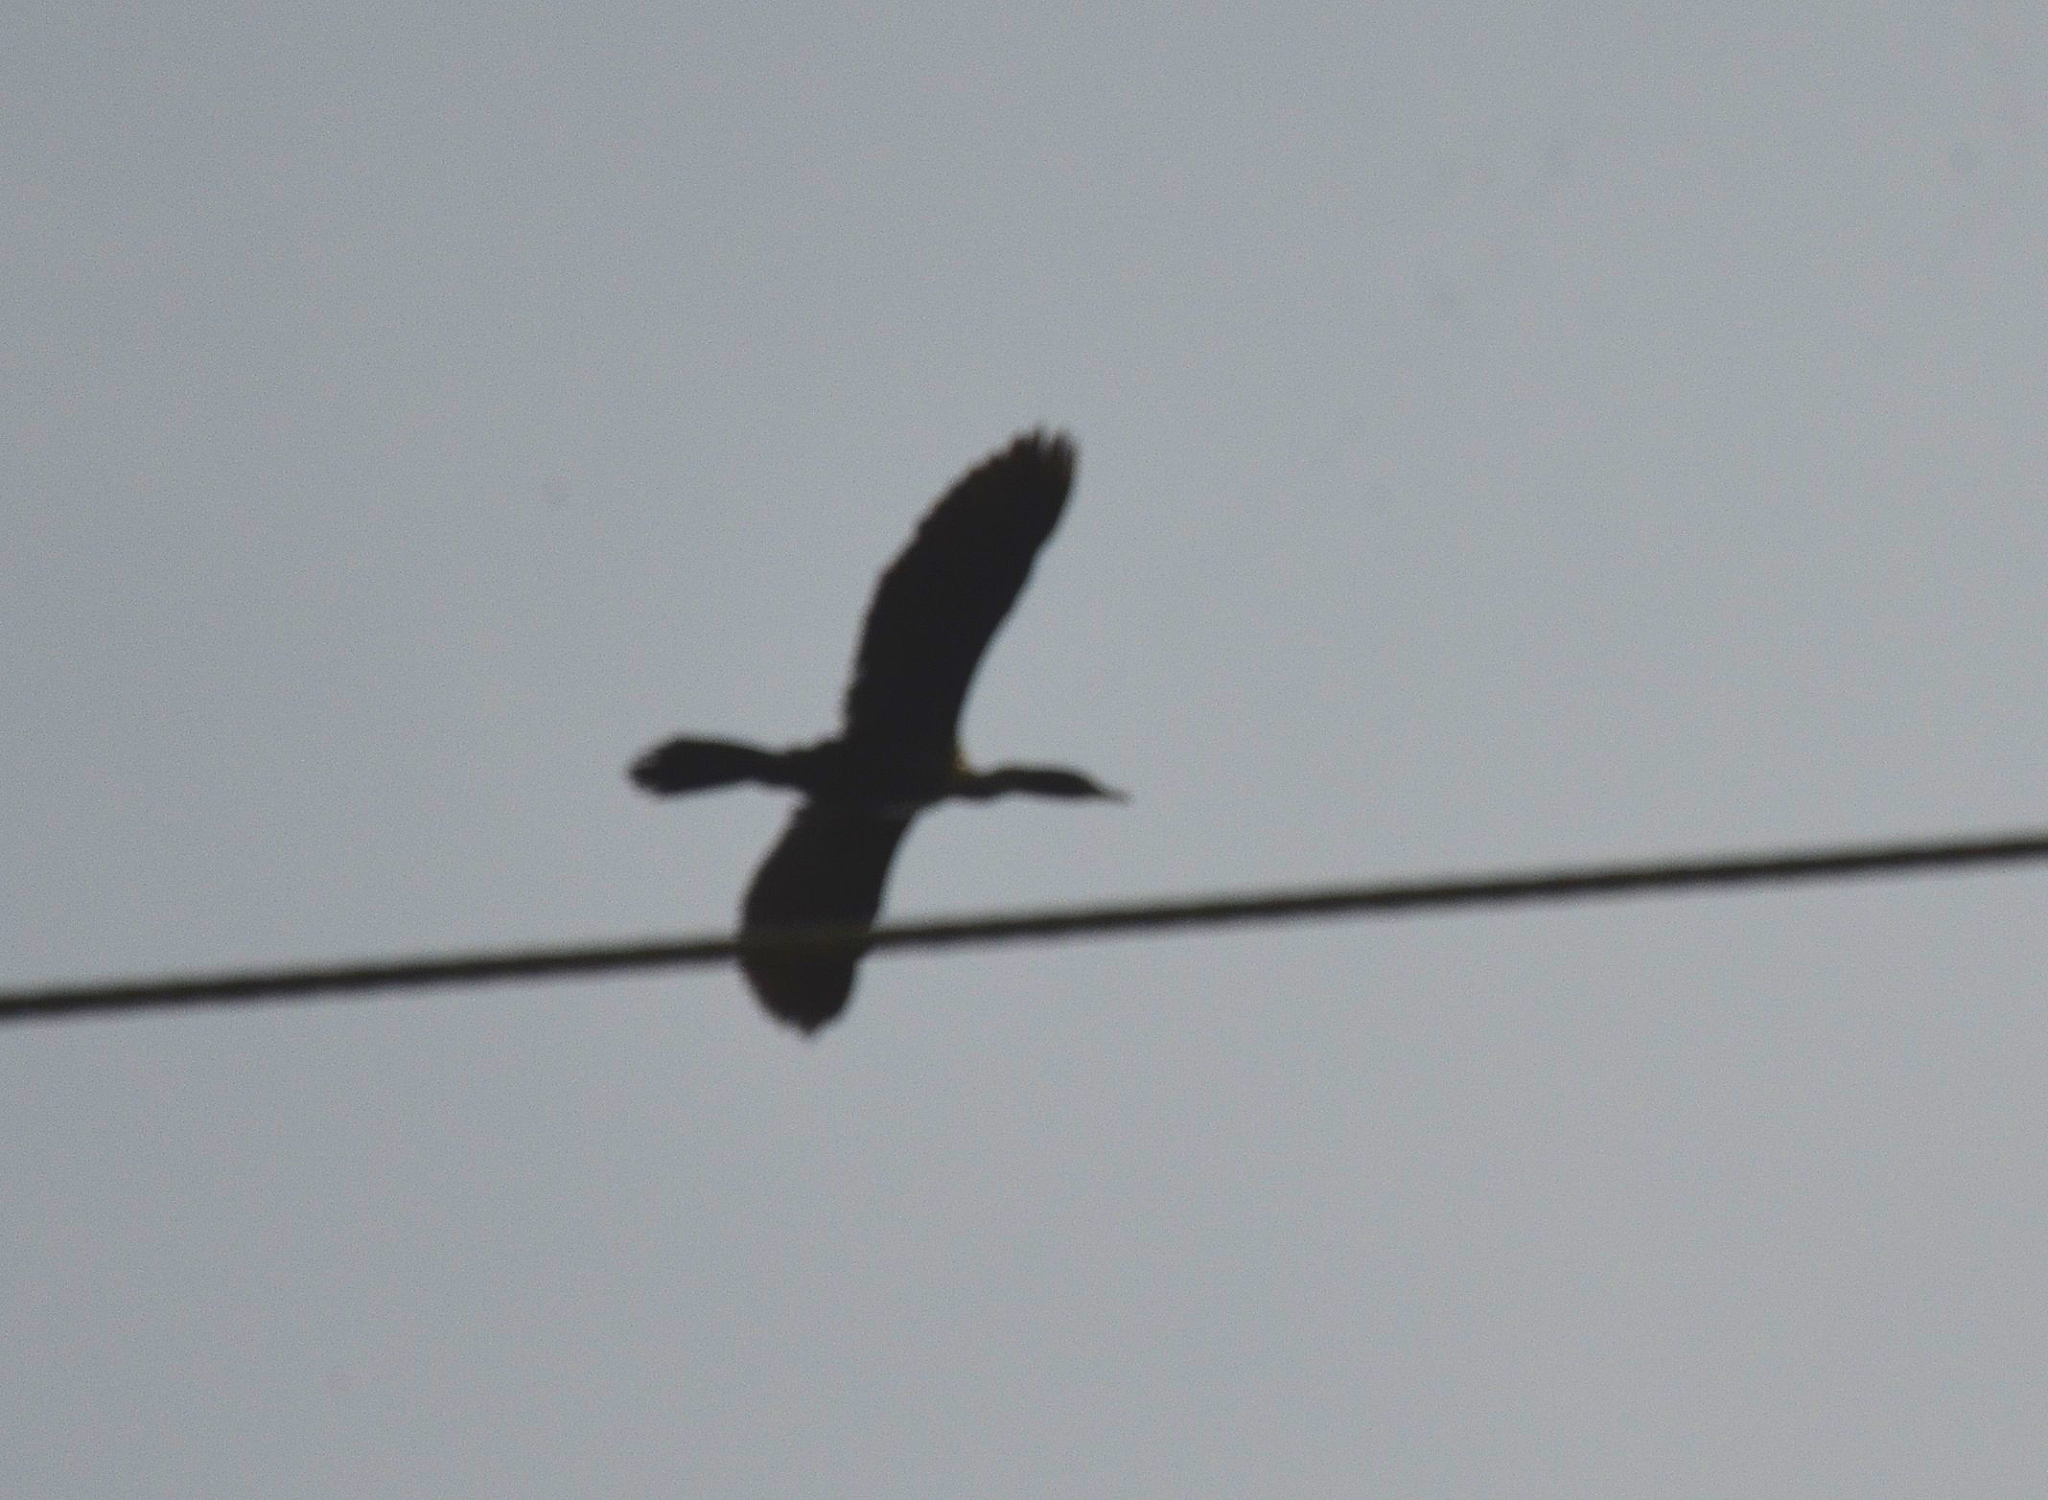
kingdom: Animalia
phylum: Chordata
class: Aves
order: Suliformes
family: Phalacrocoracidae
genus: Microcarbo
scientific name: Microcarbo niger
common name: Little cormorant
